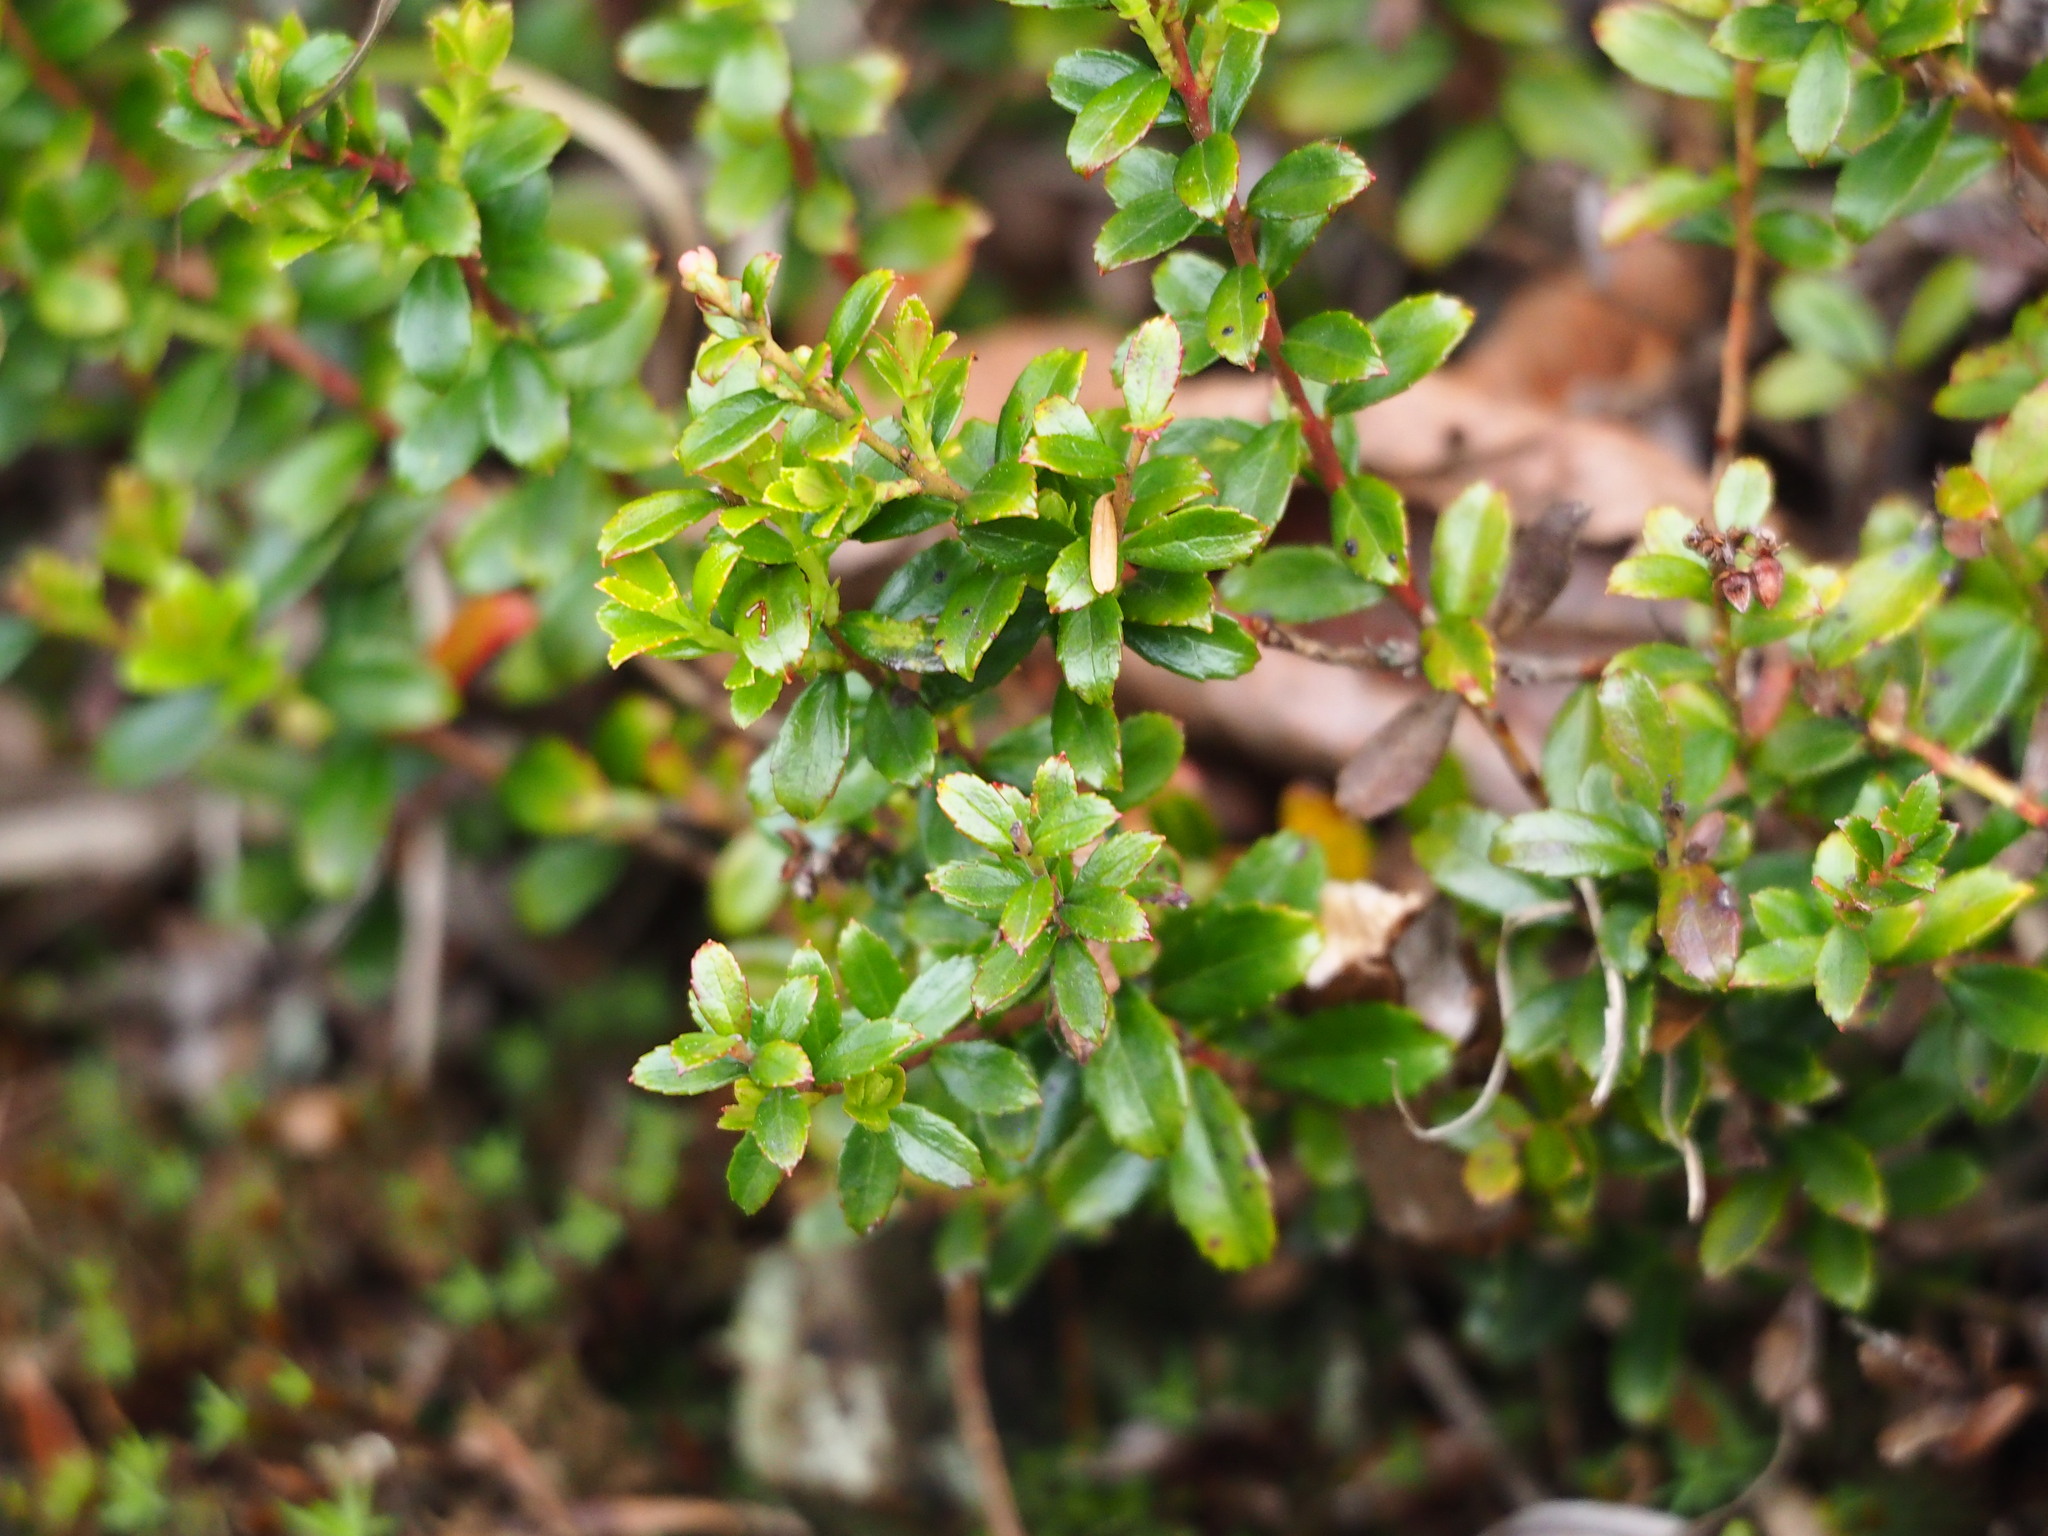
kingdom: Plantae
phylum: Tracheophyta
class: Magnoliopsida
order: Ericales
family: Ericaceae
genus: Gaultheria
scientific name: Gaultheria borneensis
